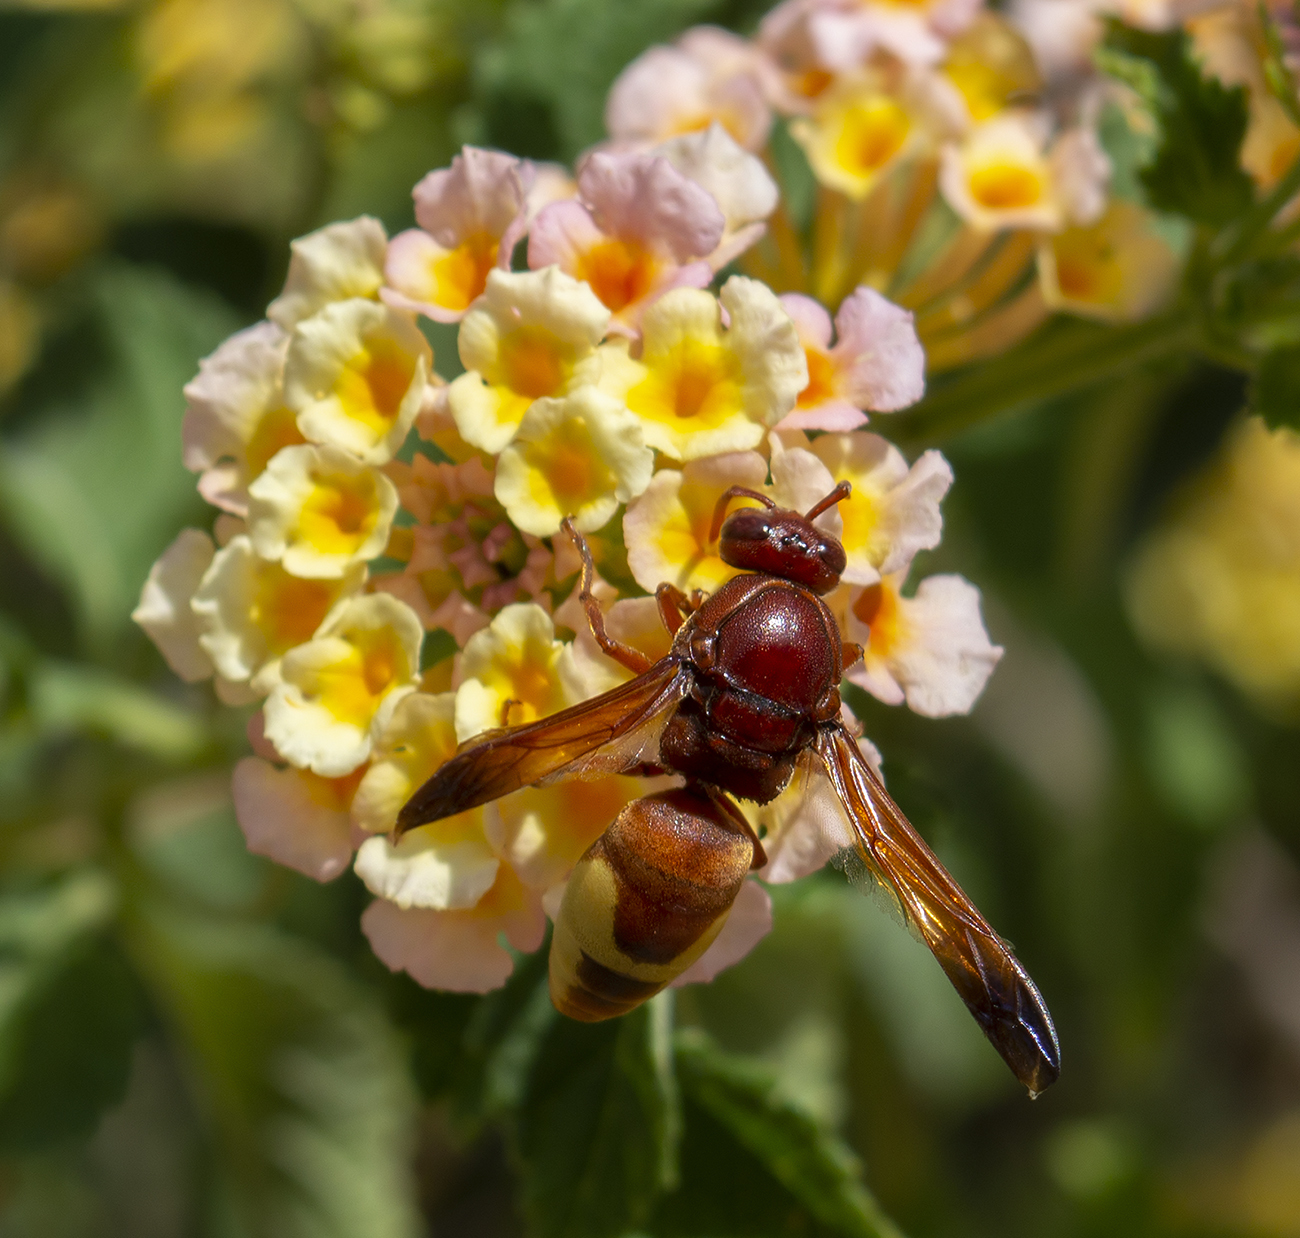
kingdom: Animalia
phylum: Arthropoda
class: Insecta
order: Hymenoptera
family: Eumenidae
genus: Rhynchium
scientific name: Rhynchium oculatum
